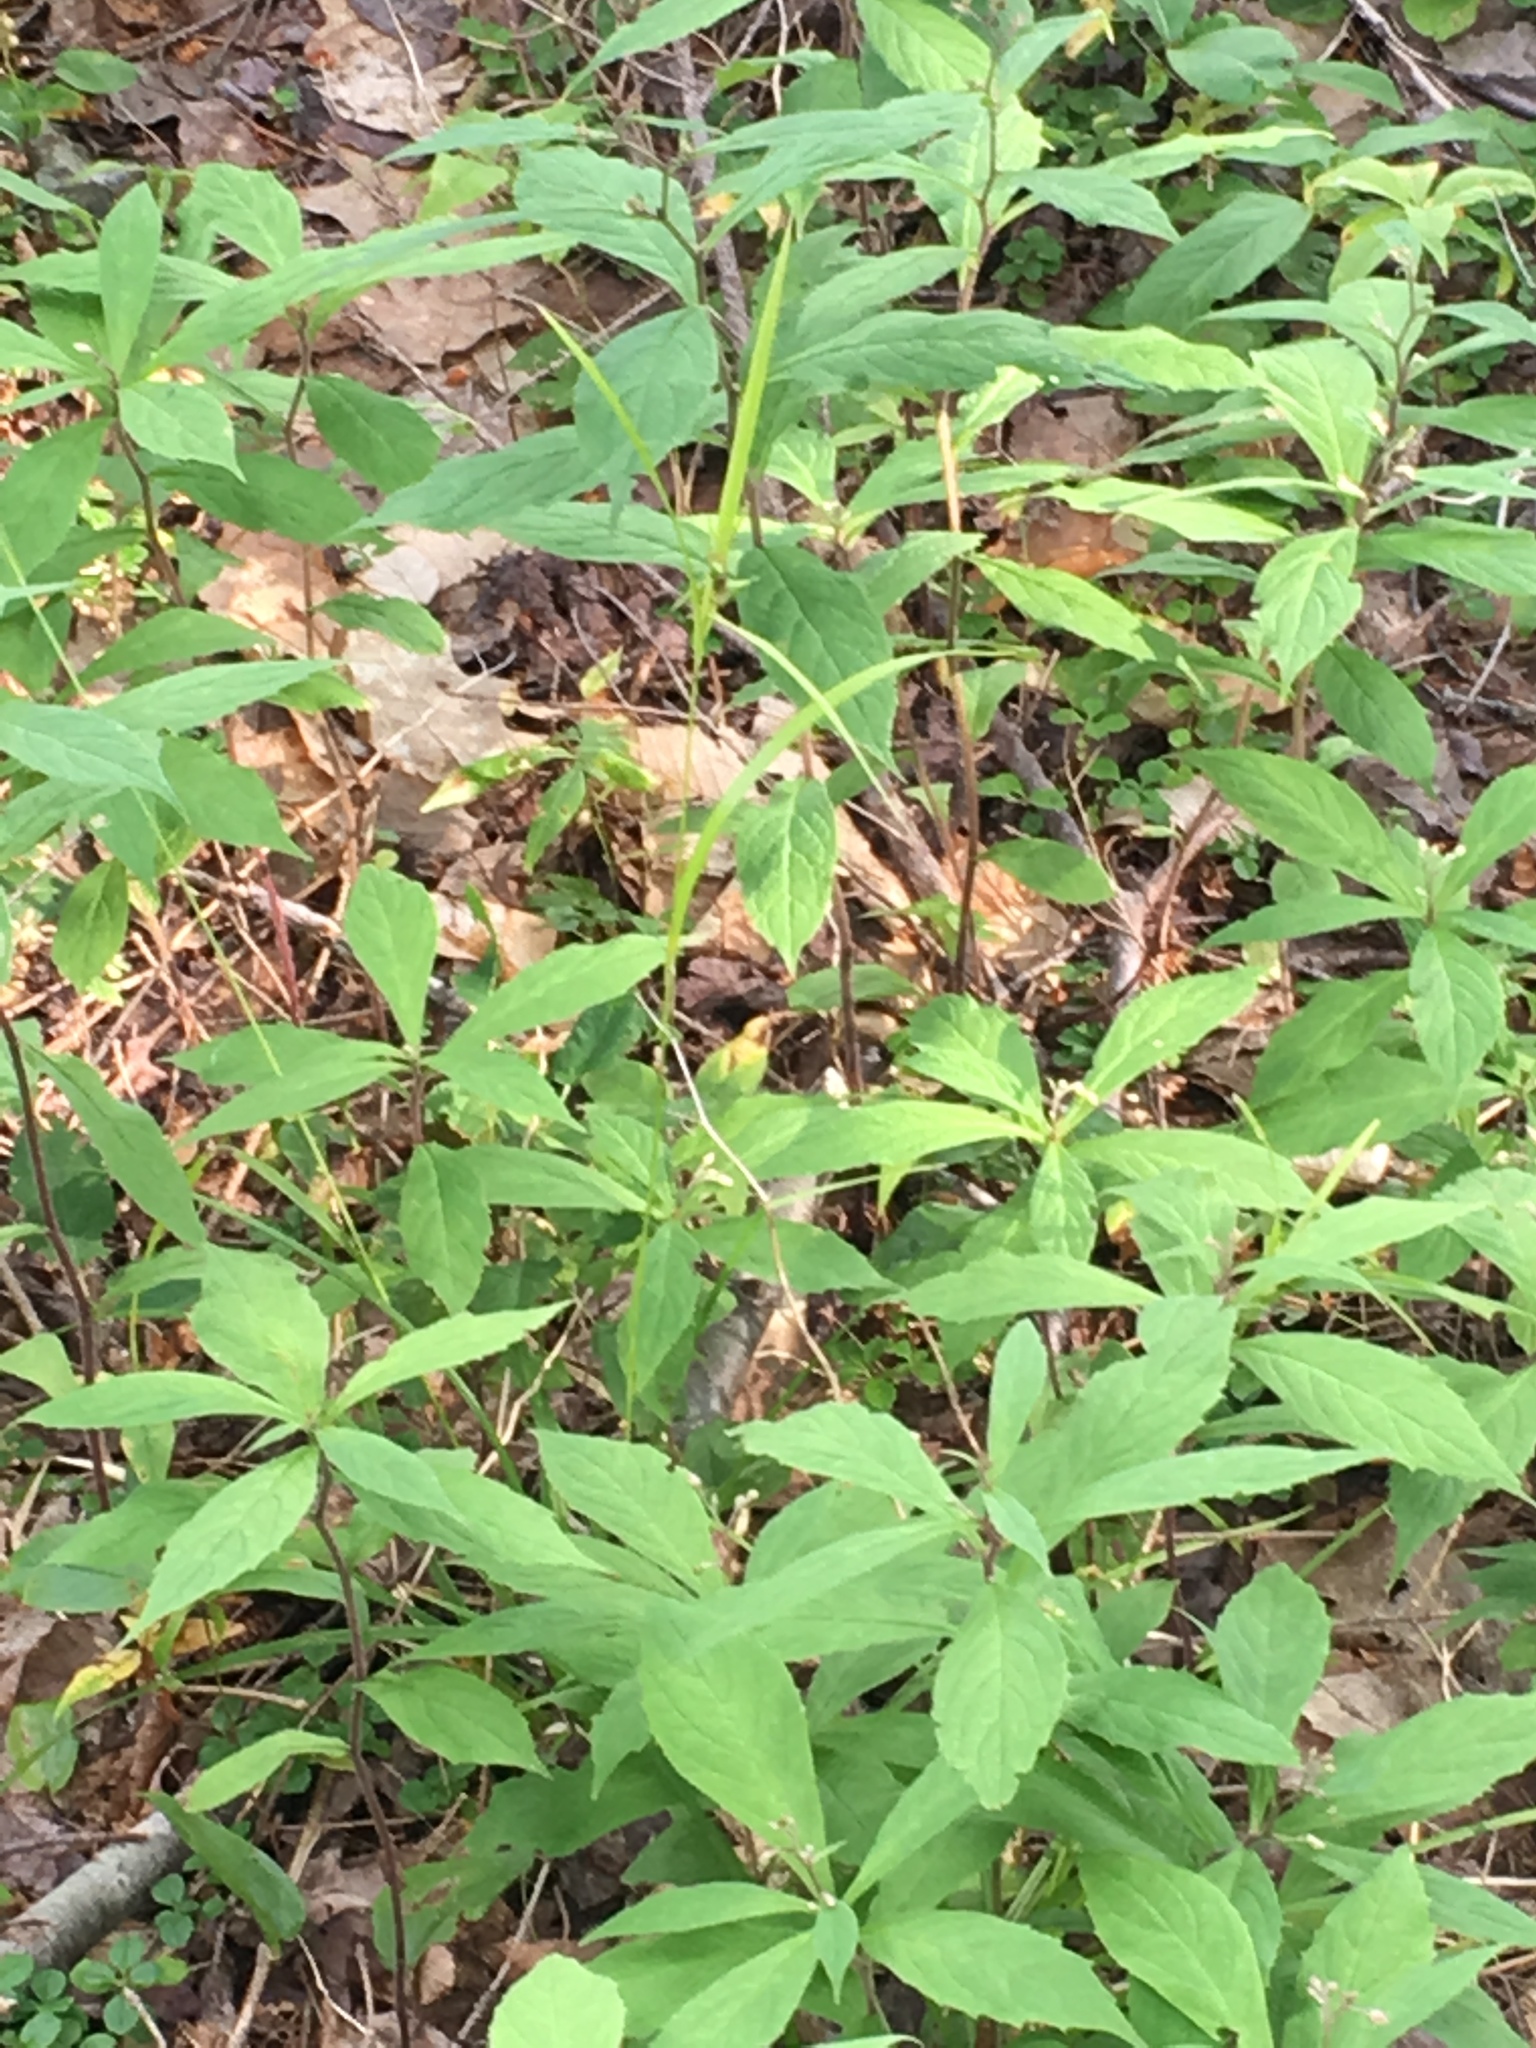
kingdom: Plantae
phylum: Tracheophyta
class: Liliopsida
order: Poales
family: Cyperaceae
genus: Carex
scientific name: Carex intumescens
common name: Greater bladder sedge
